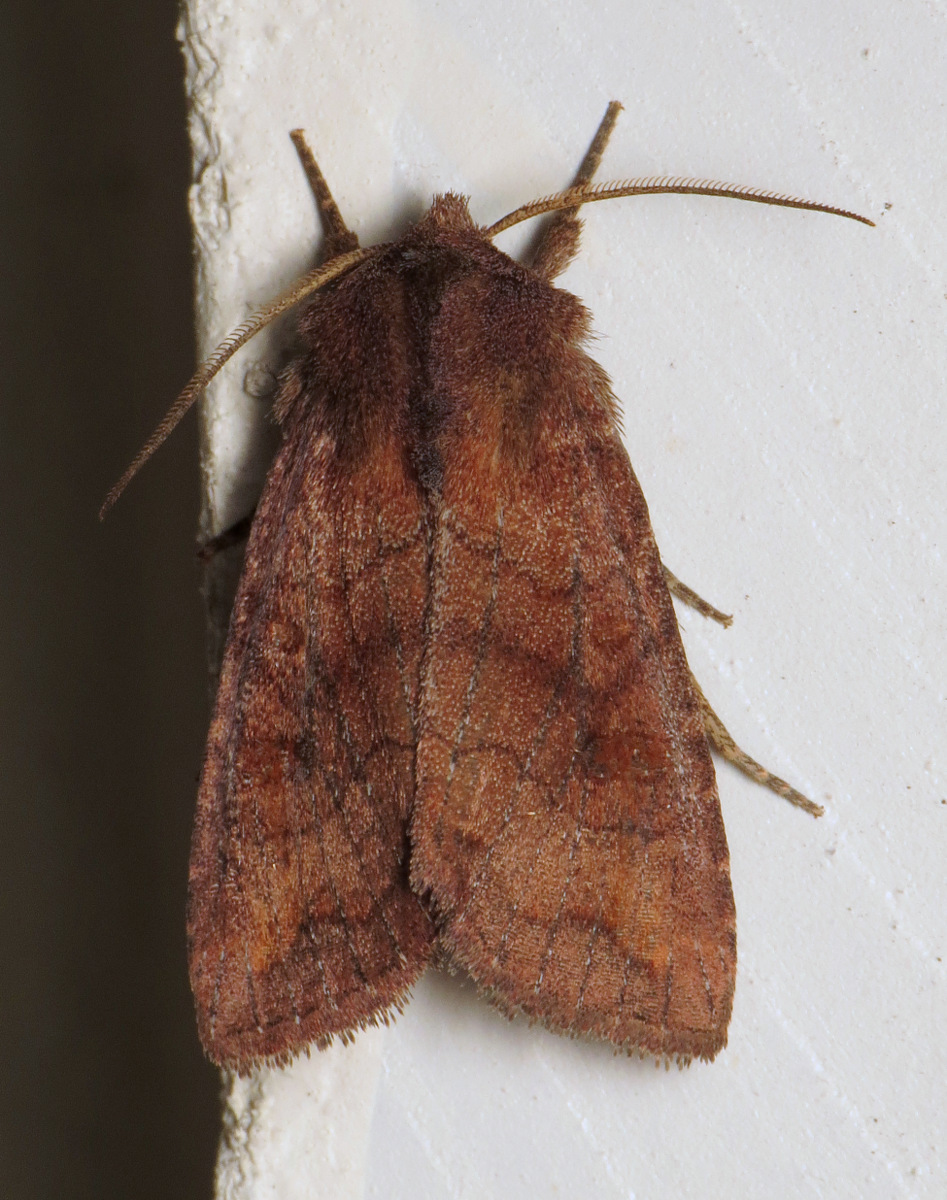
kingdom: Animalia
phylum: Arthropoda
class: Insecta
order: Lepidoptera
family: Noctuidae
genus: Tricholita
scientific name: Tricholita signata
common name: Signate quaker
